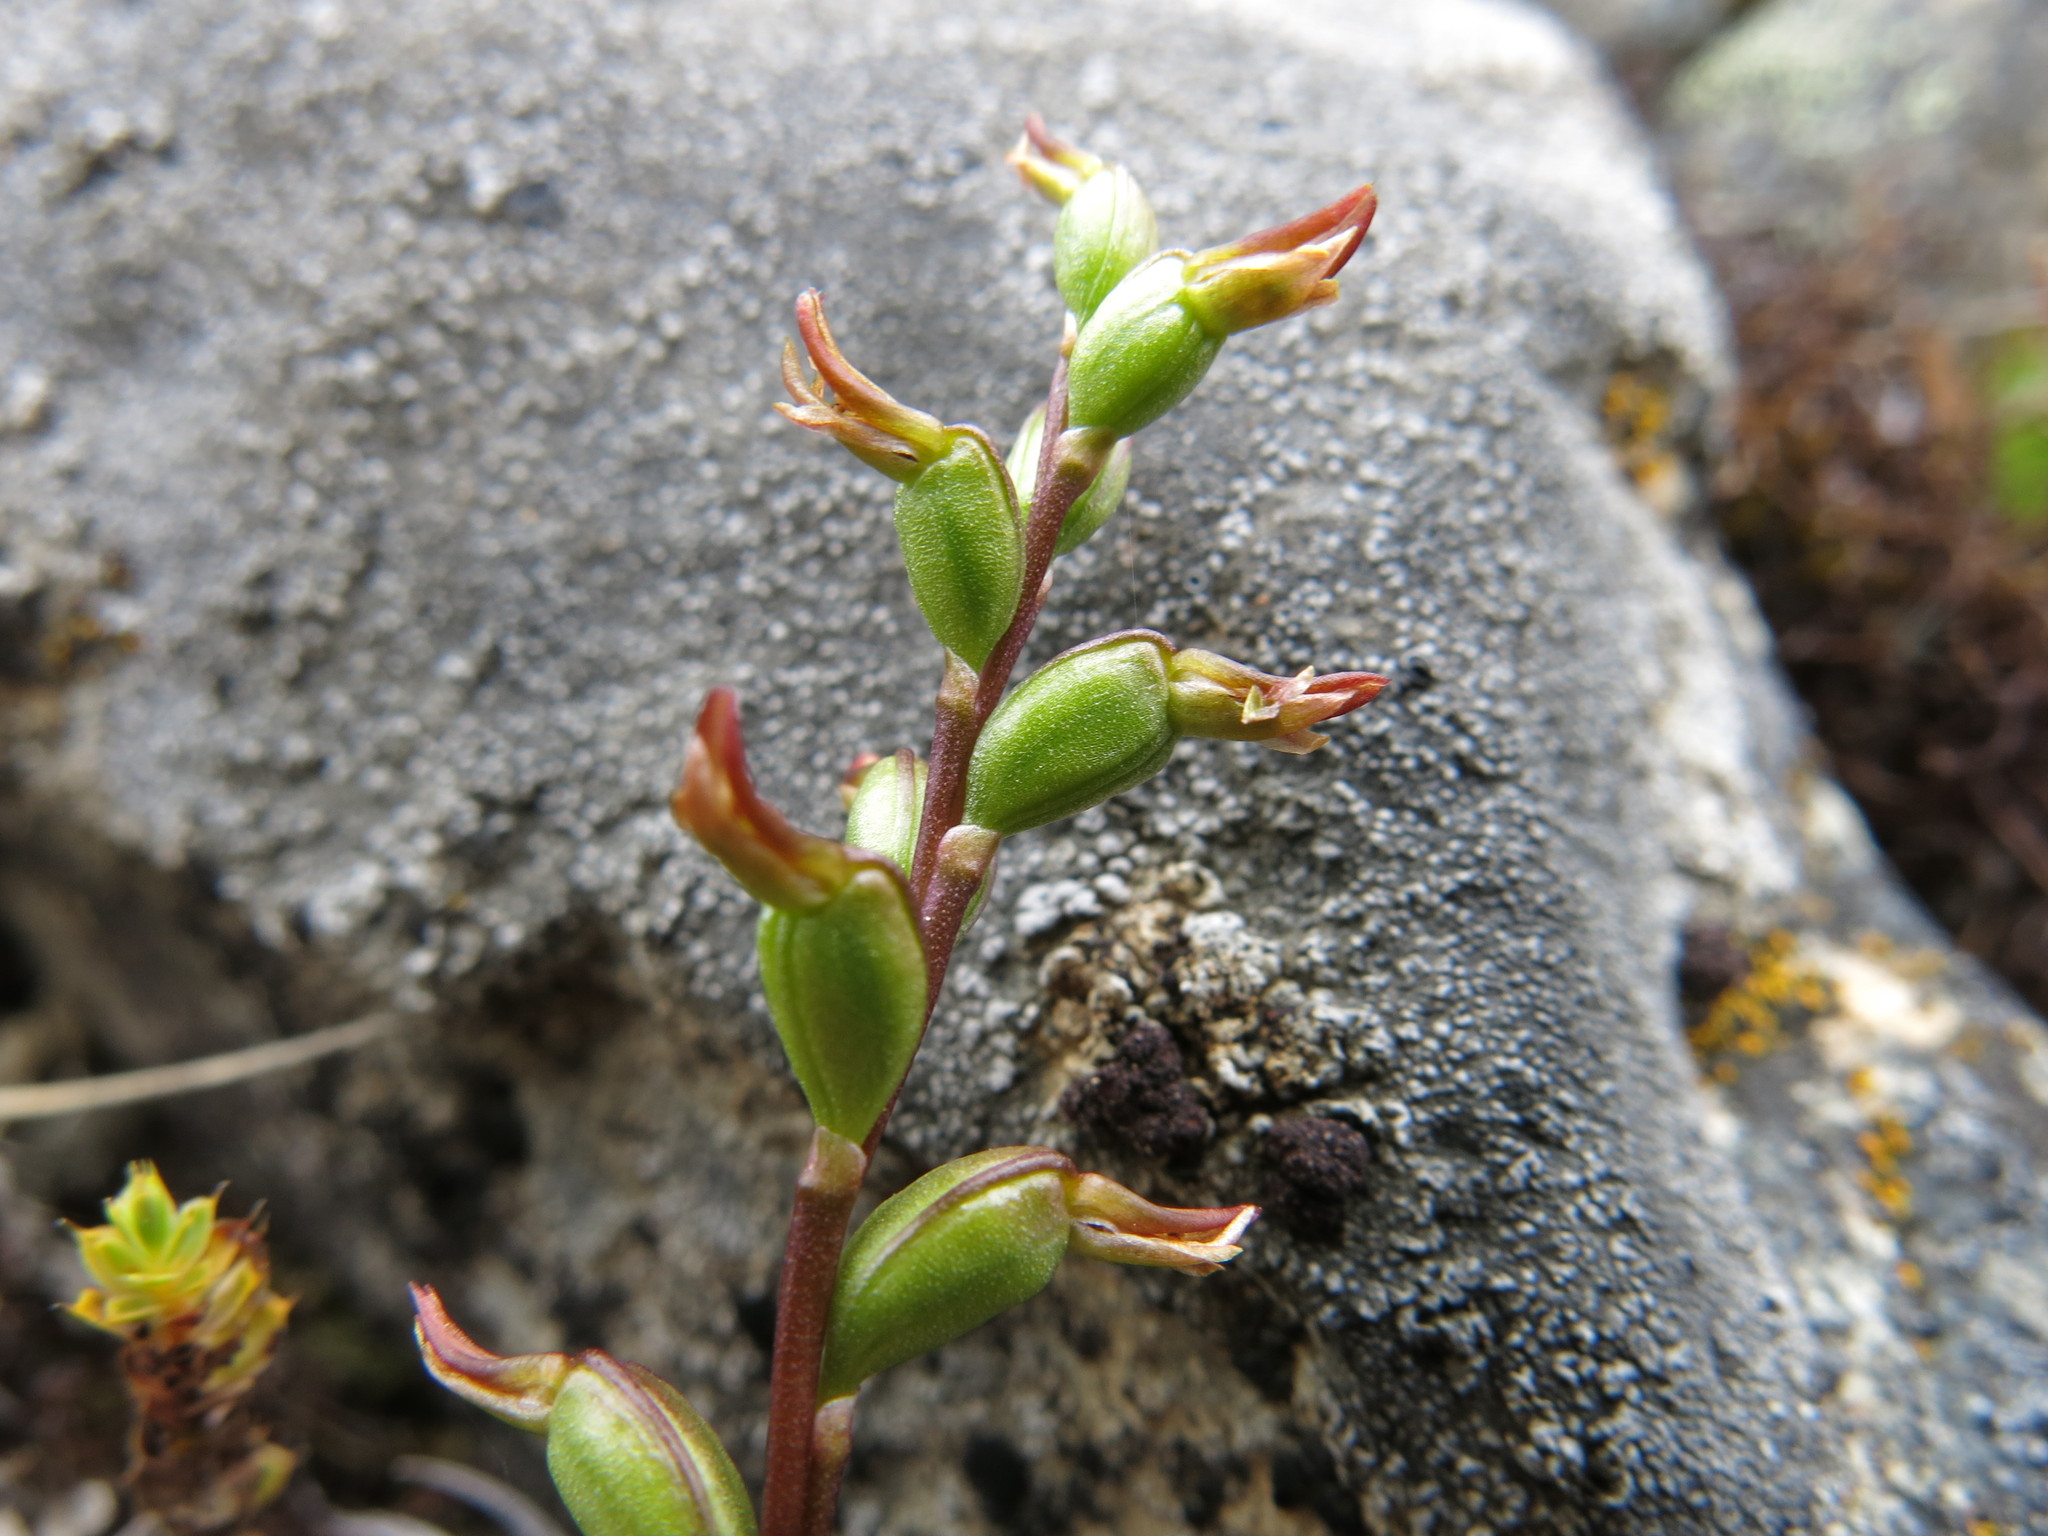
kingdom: Plantae
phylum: Tracheophyta
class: Liliopsida
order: Asparagales
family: Orchidaceae
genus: Prasophyllum
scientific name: Prasophyllum colensoi
